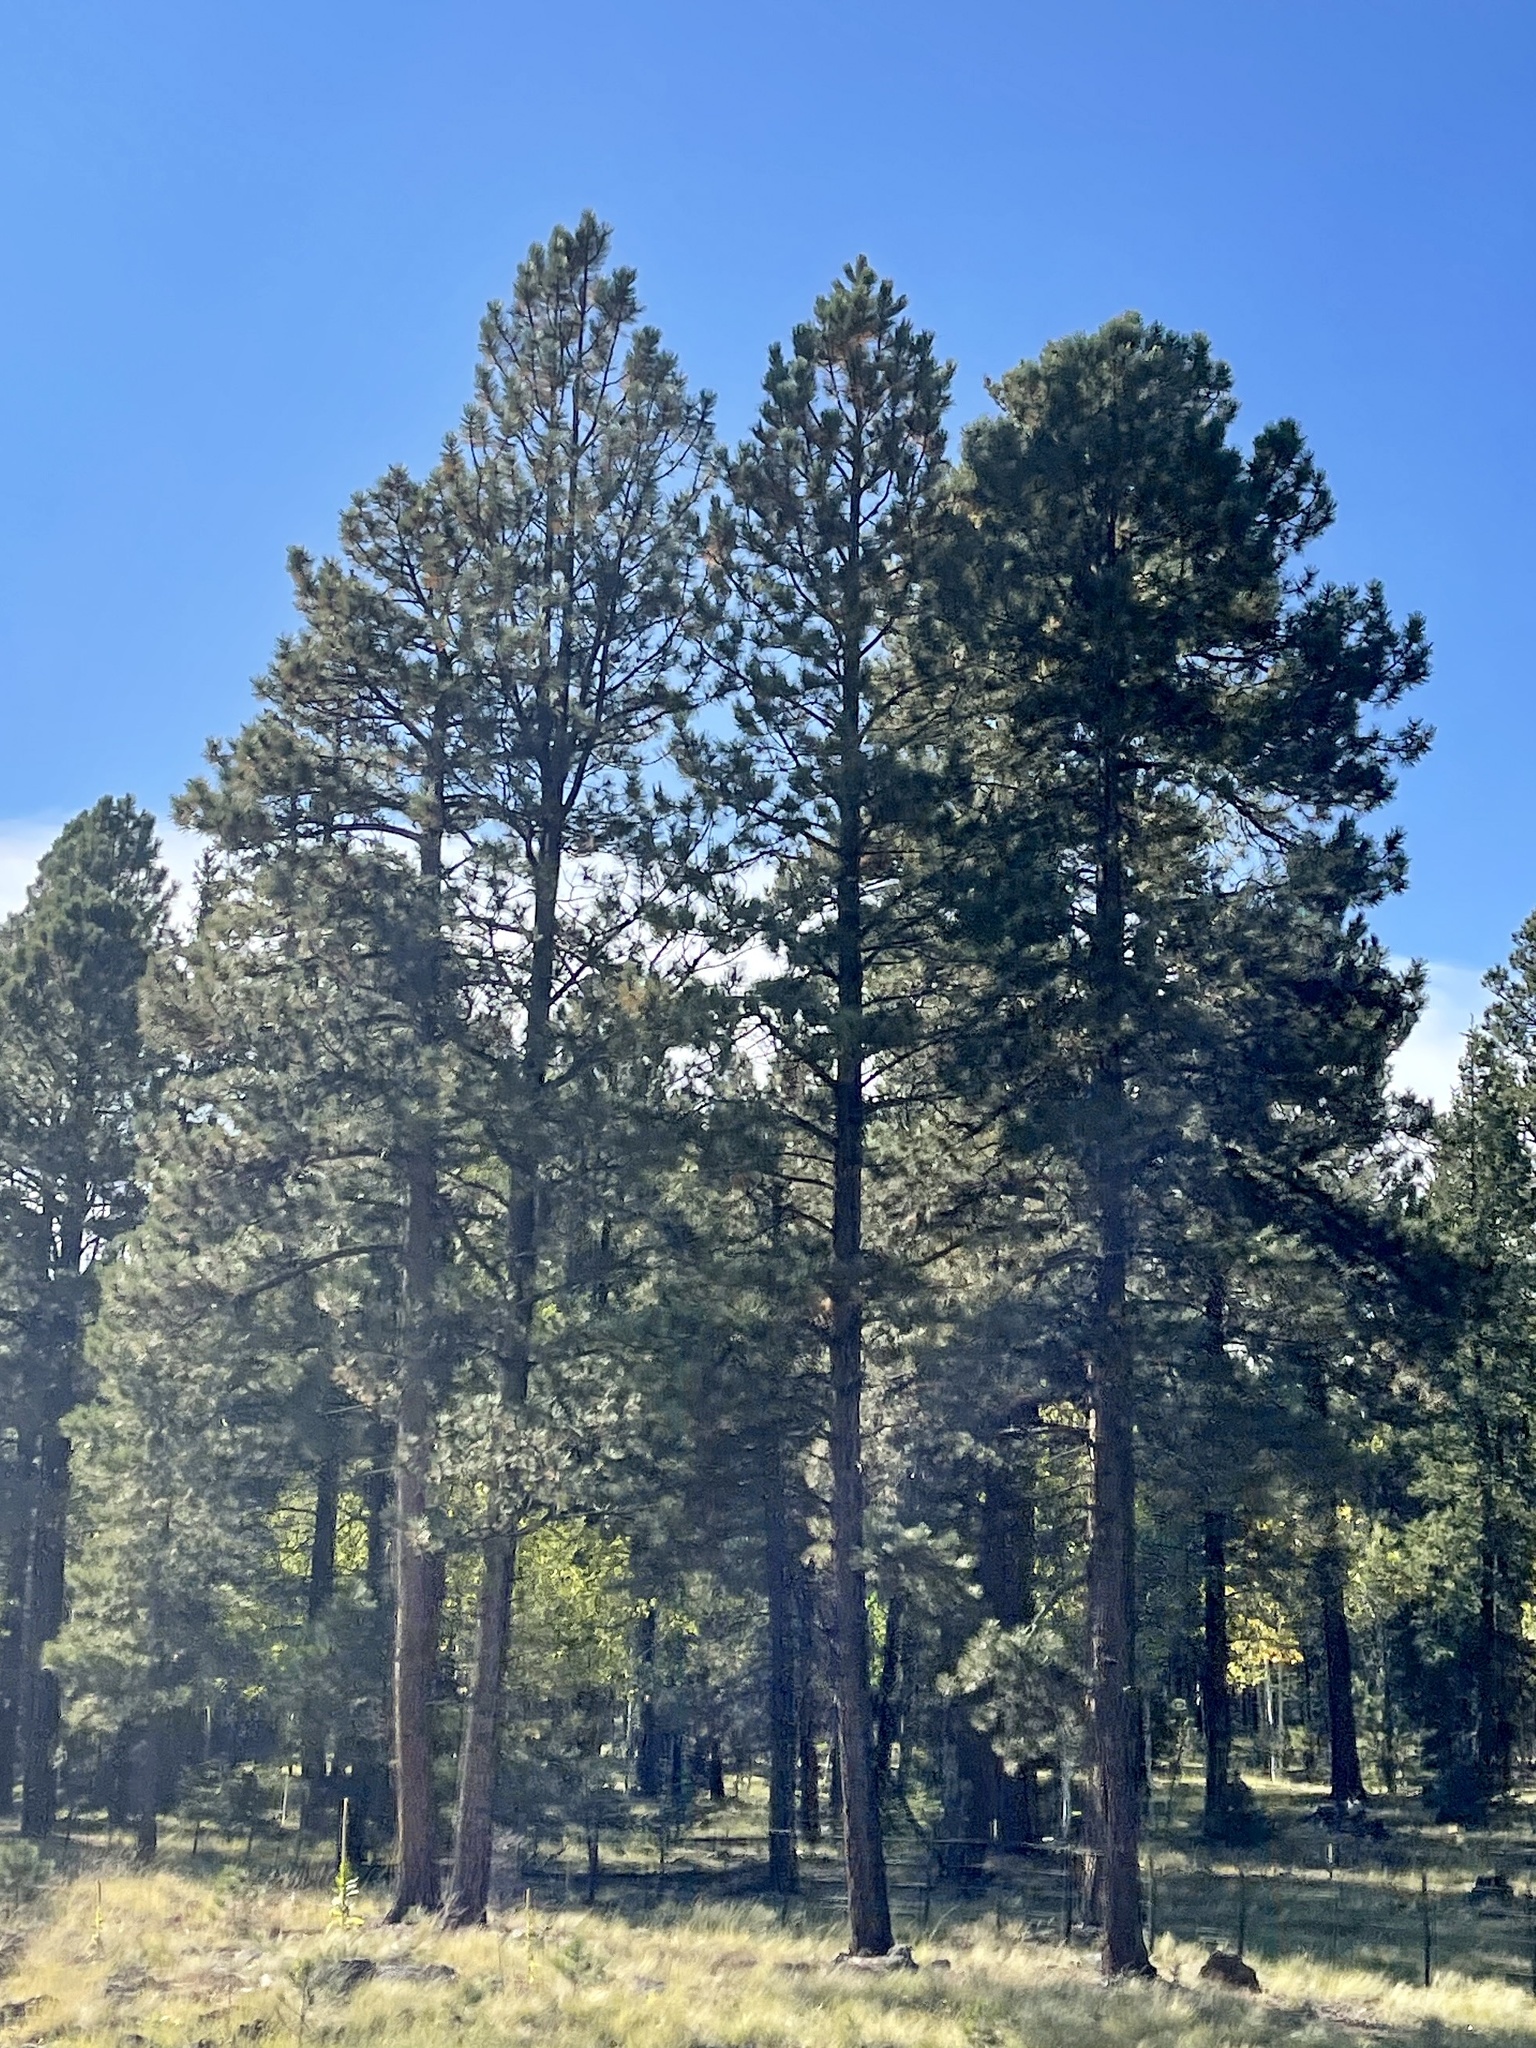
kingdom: Plantae
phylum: Tracheophyta
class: Pinopsida
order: Pinales
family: Pinaceae
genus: Pinus
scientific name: Pinus ponderosa
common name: Western yellow-pine
